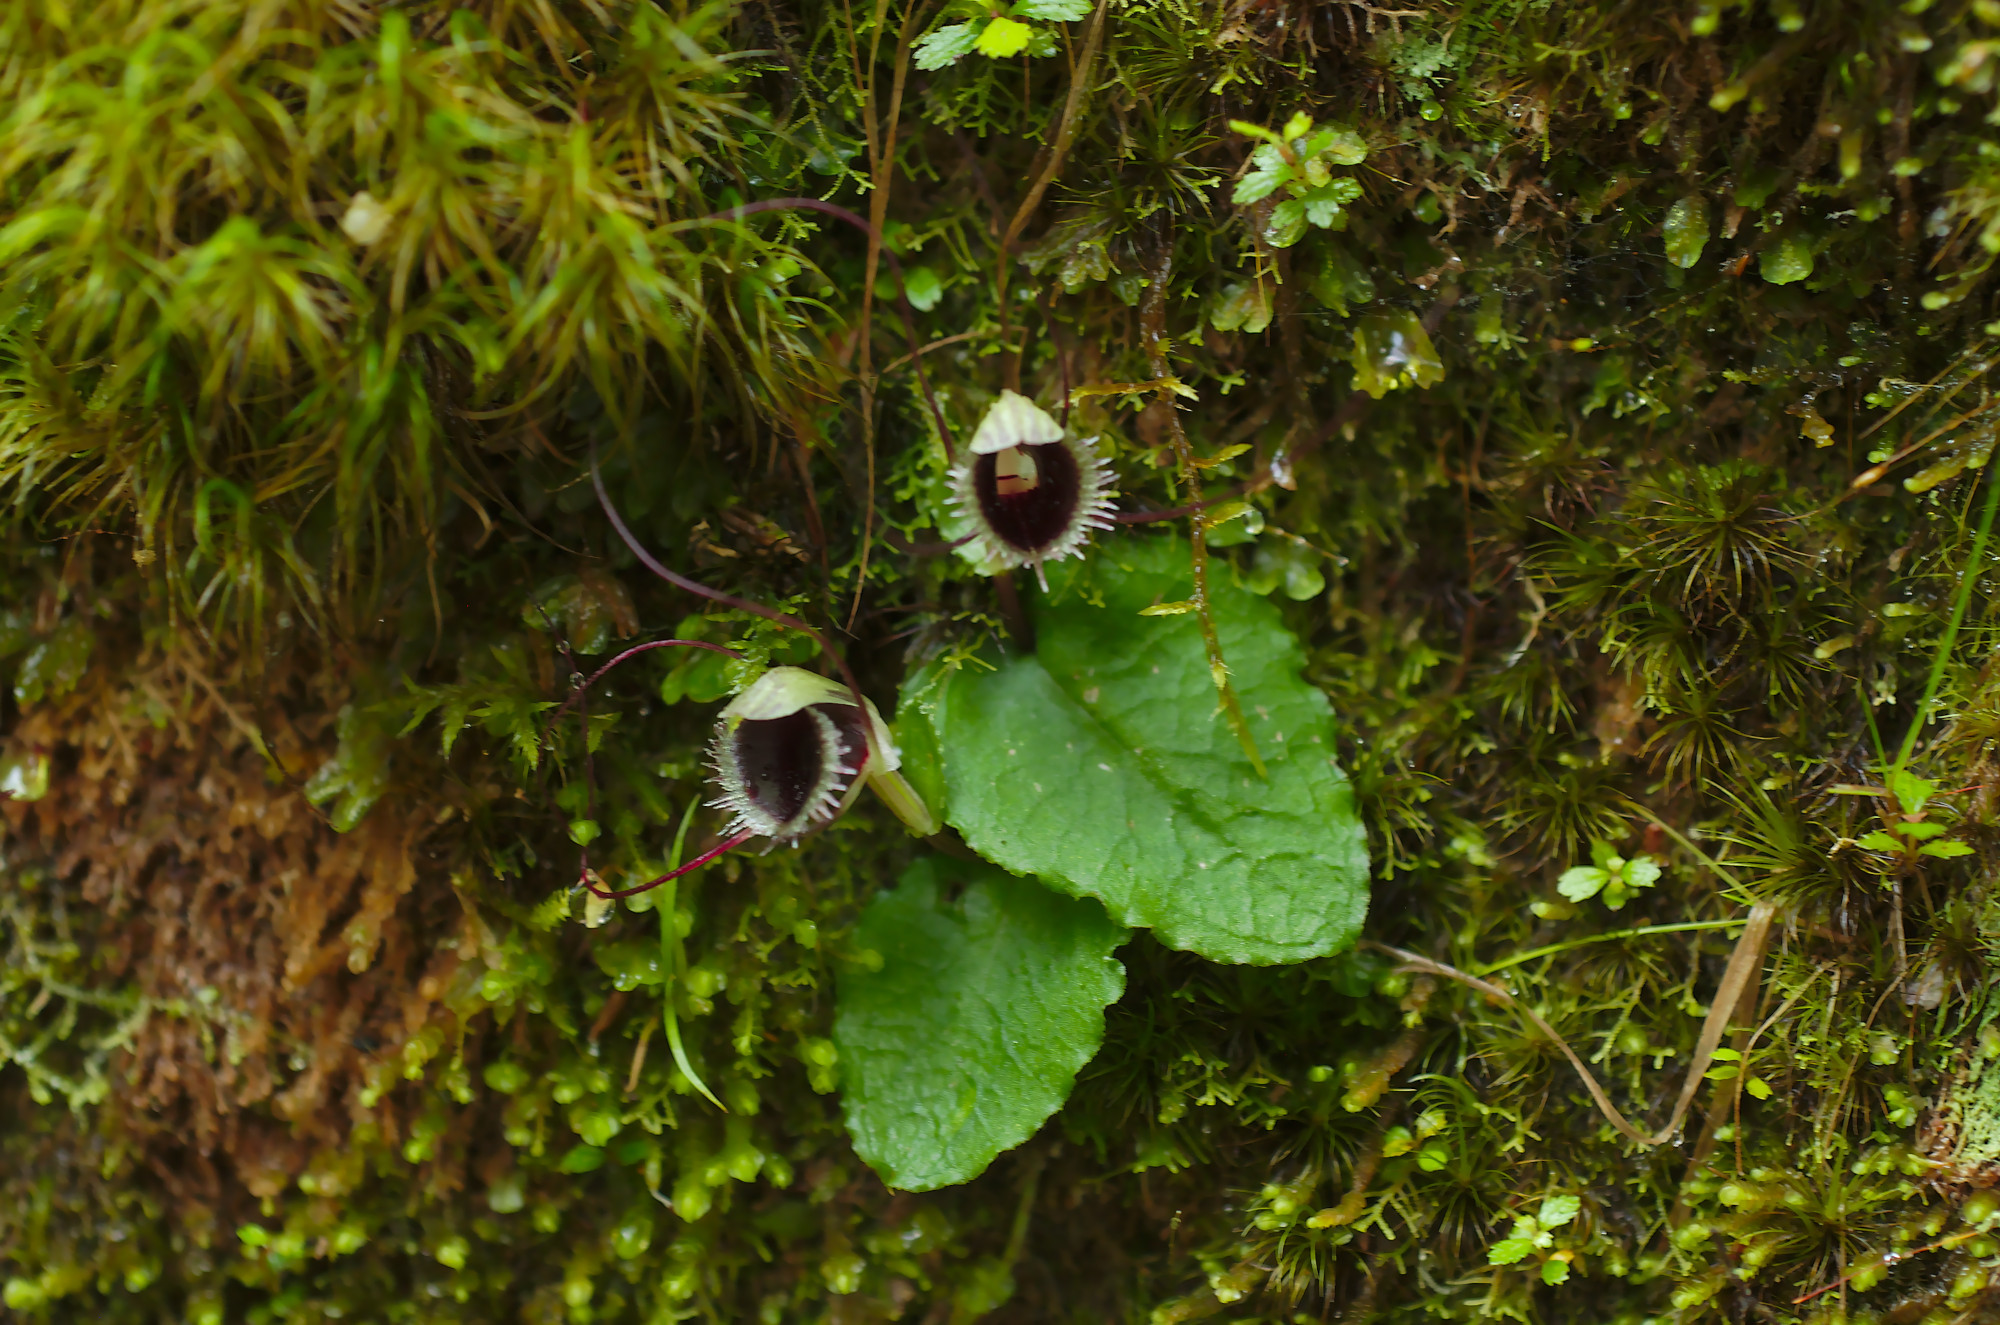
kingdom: Plantae
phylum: Tracheophyta
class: Liliopsida
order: Asparagales
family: Orchidaceae
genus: Corybas
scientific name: Corybas oblongus
